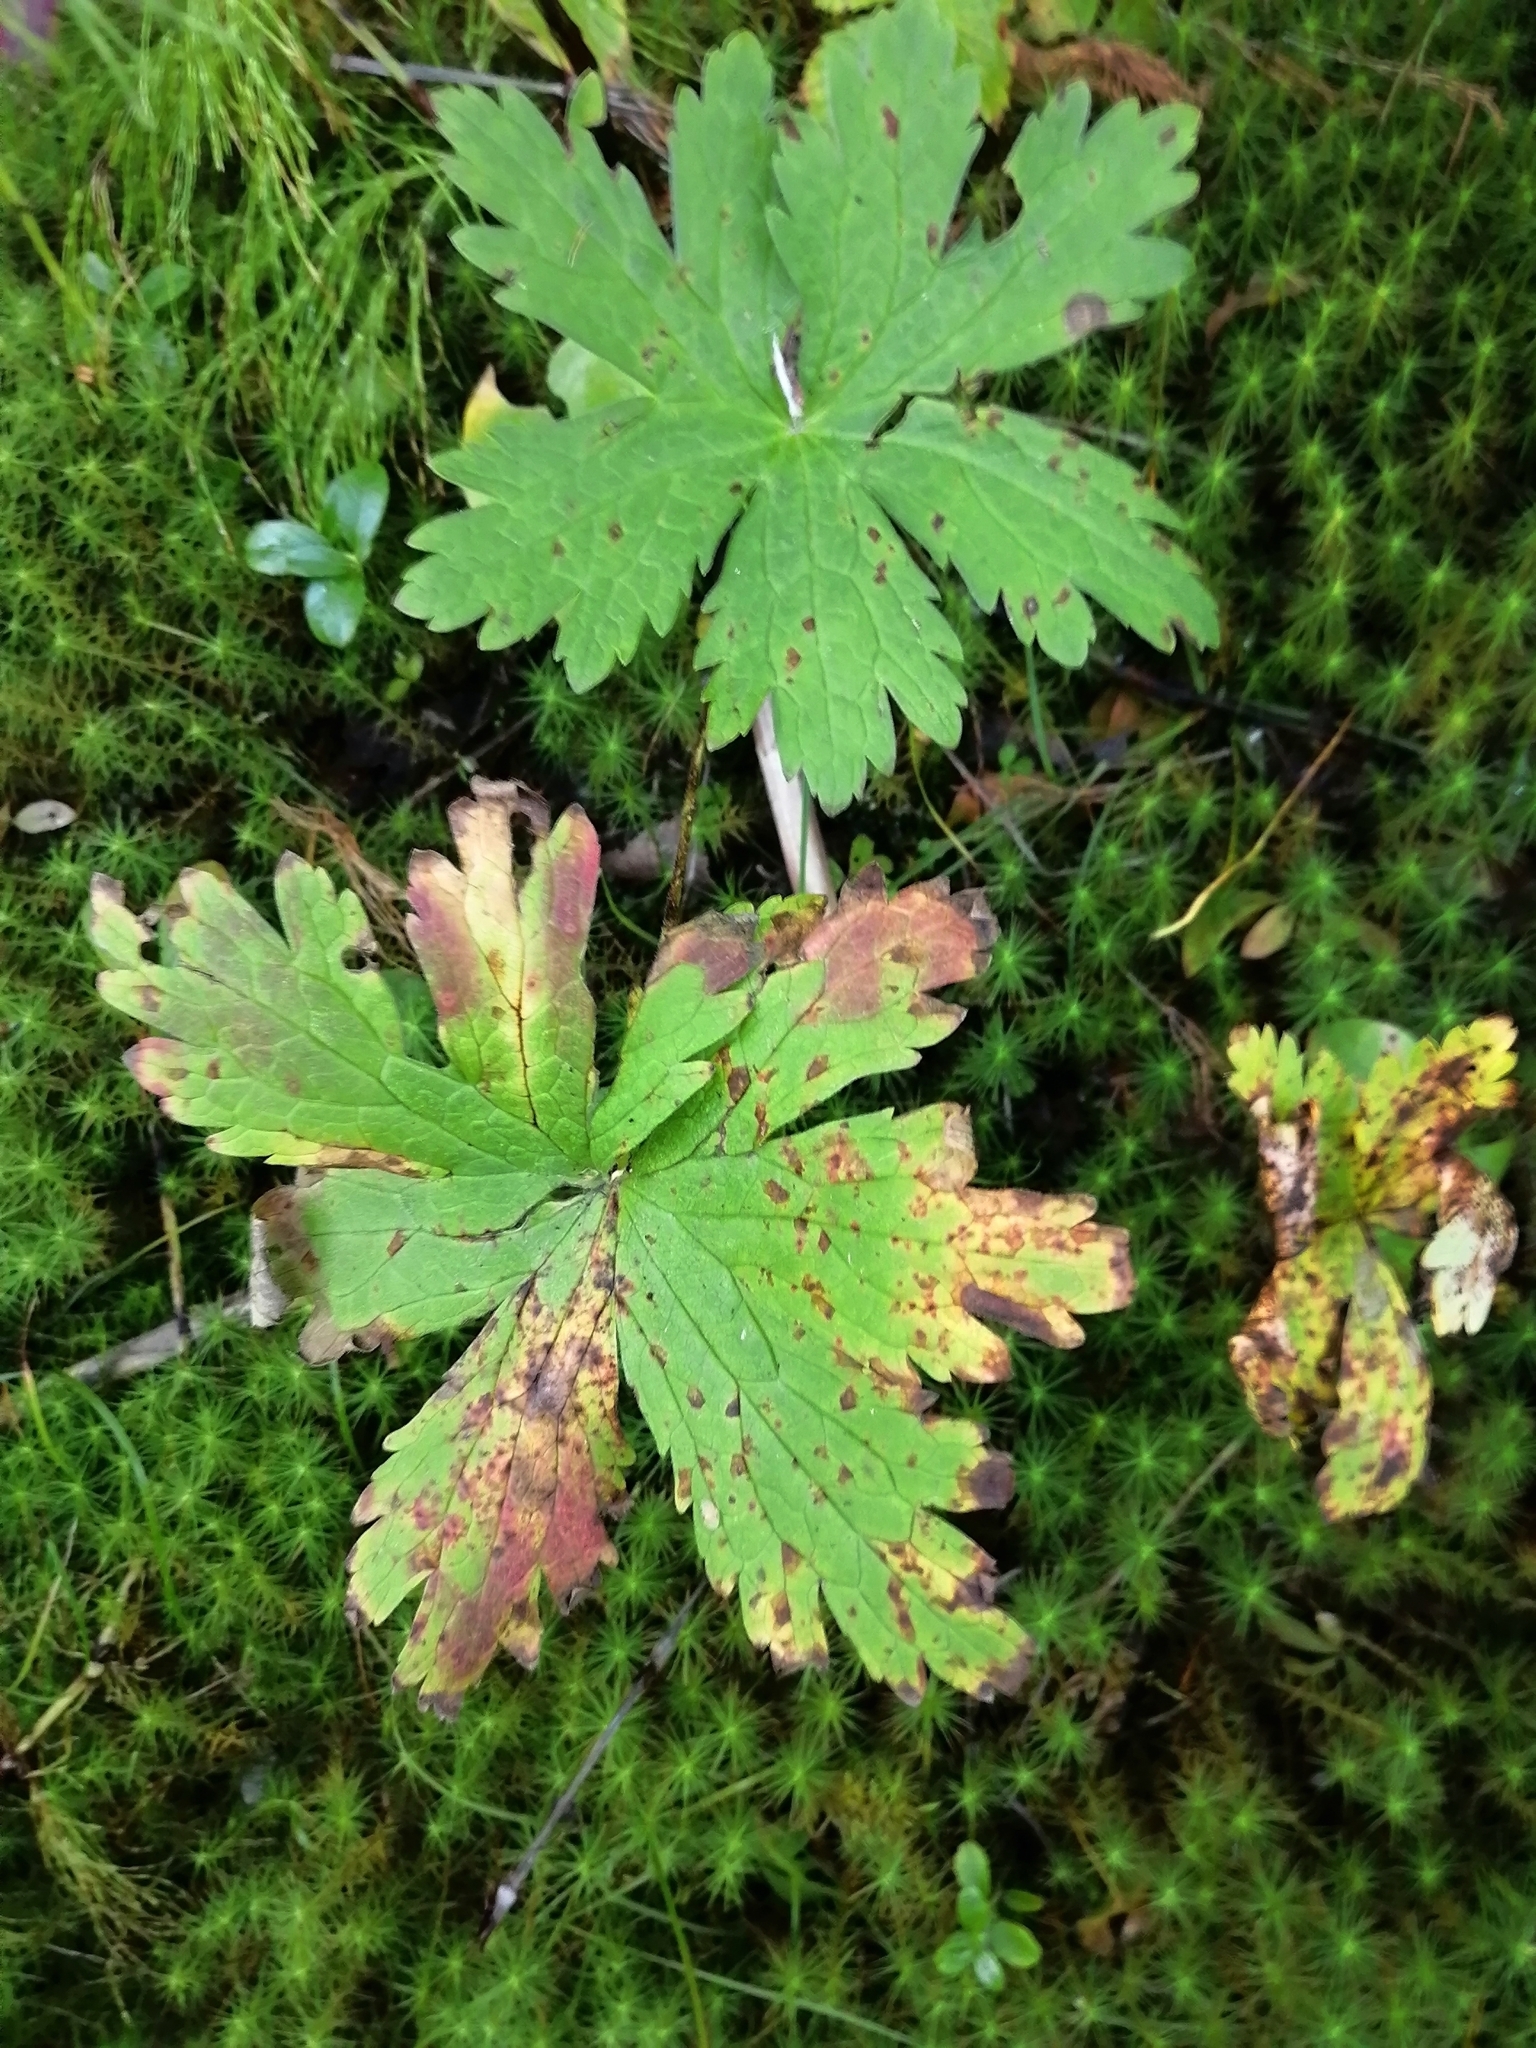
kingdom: Plantae
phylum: Tracheophyta
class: Magnoliopsida
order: Geraniales
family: Geraniaceae
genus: Geranium
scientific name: Geranium sylvaticum
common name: Wood crane's-bill
